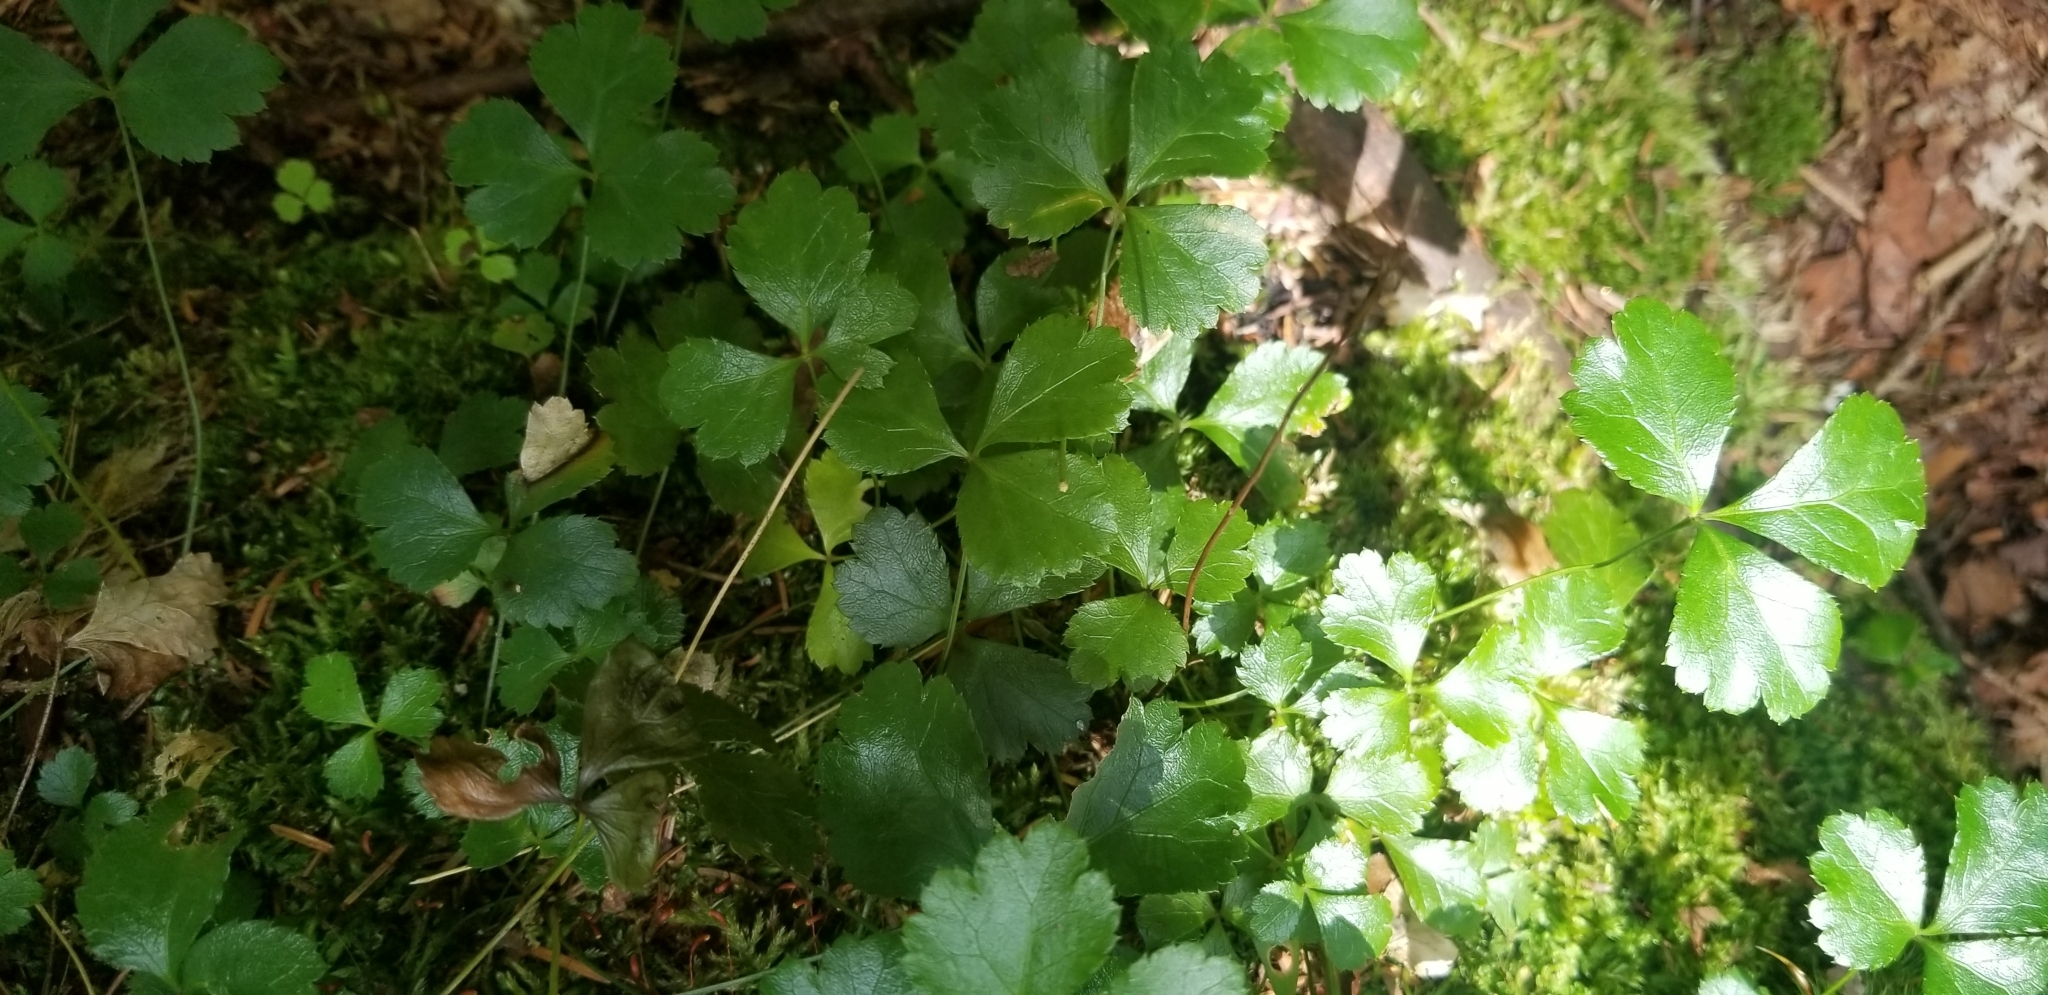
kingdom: Plantae
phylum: Tracheophyta
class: Magnoliopsida
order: Ranunculales
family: Ranunculaceae
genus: Coptis
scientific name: Coptis trifolia
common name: Canker-root
